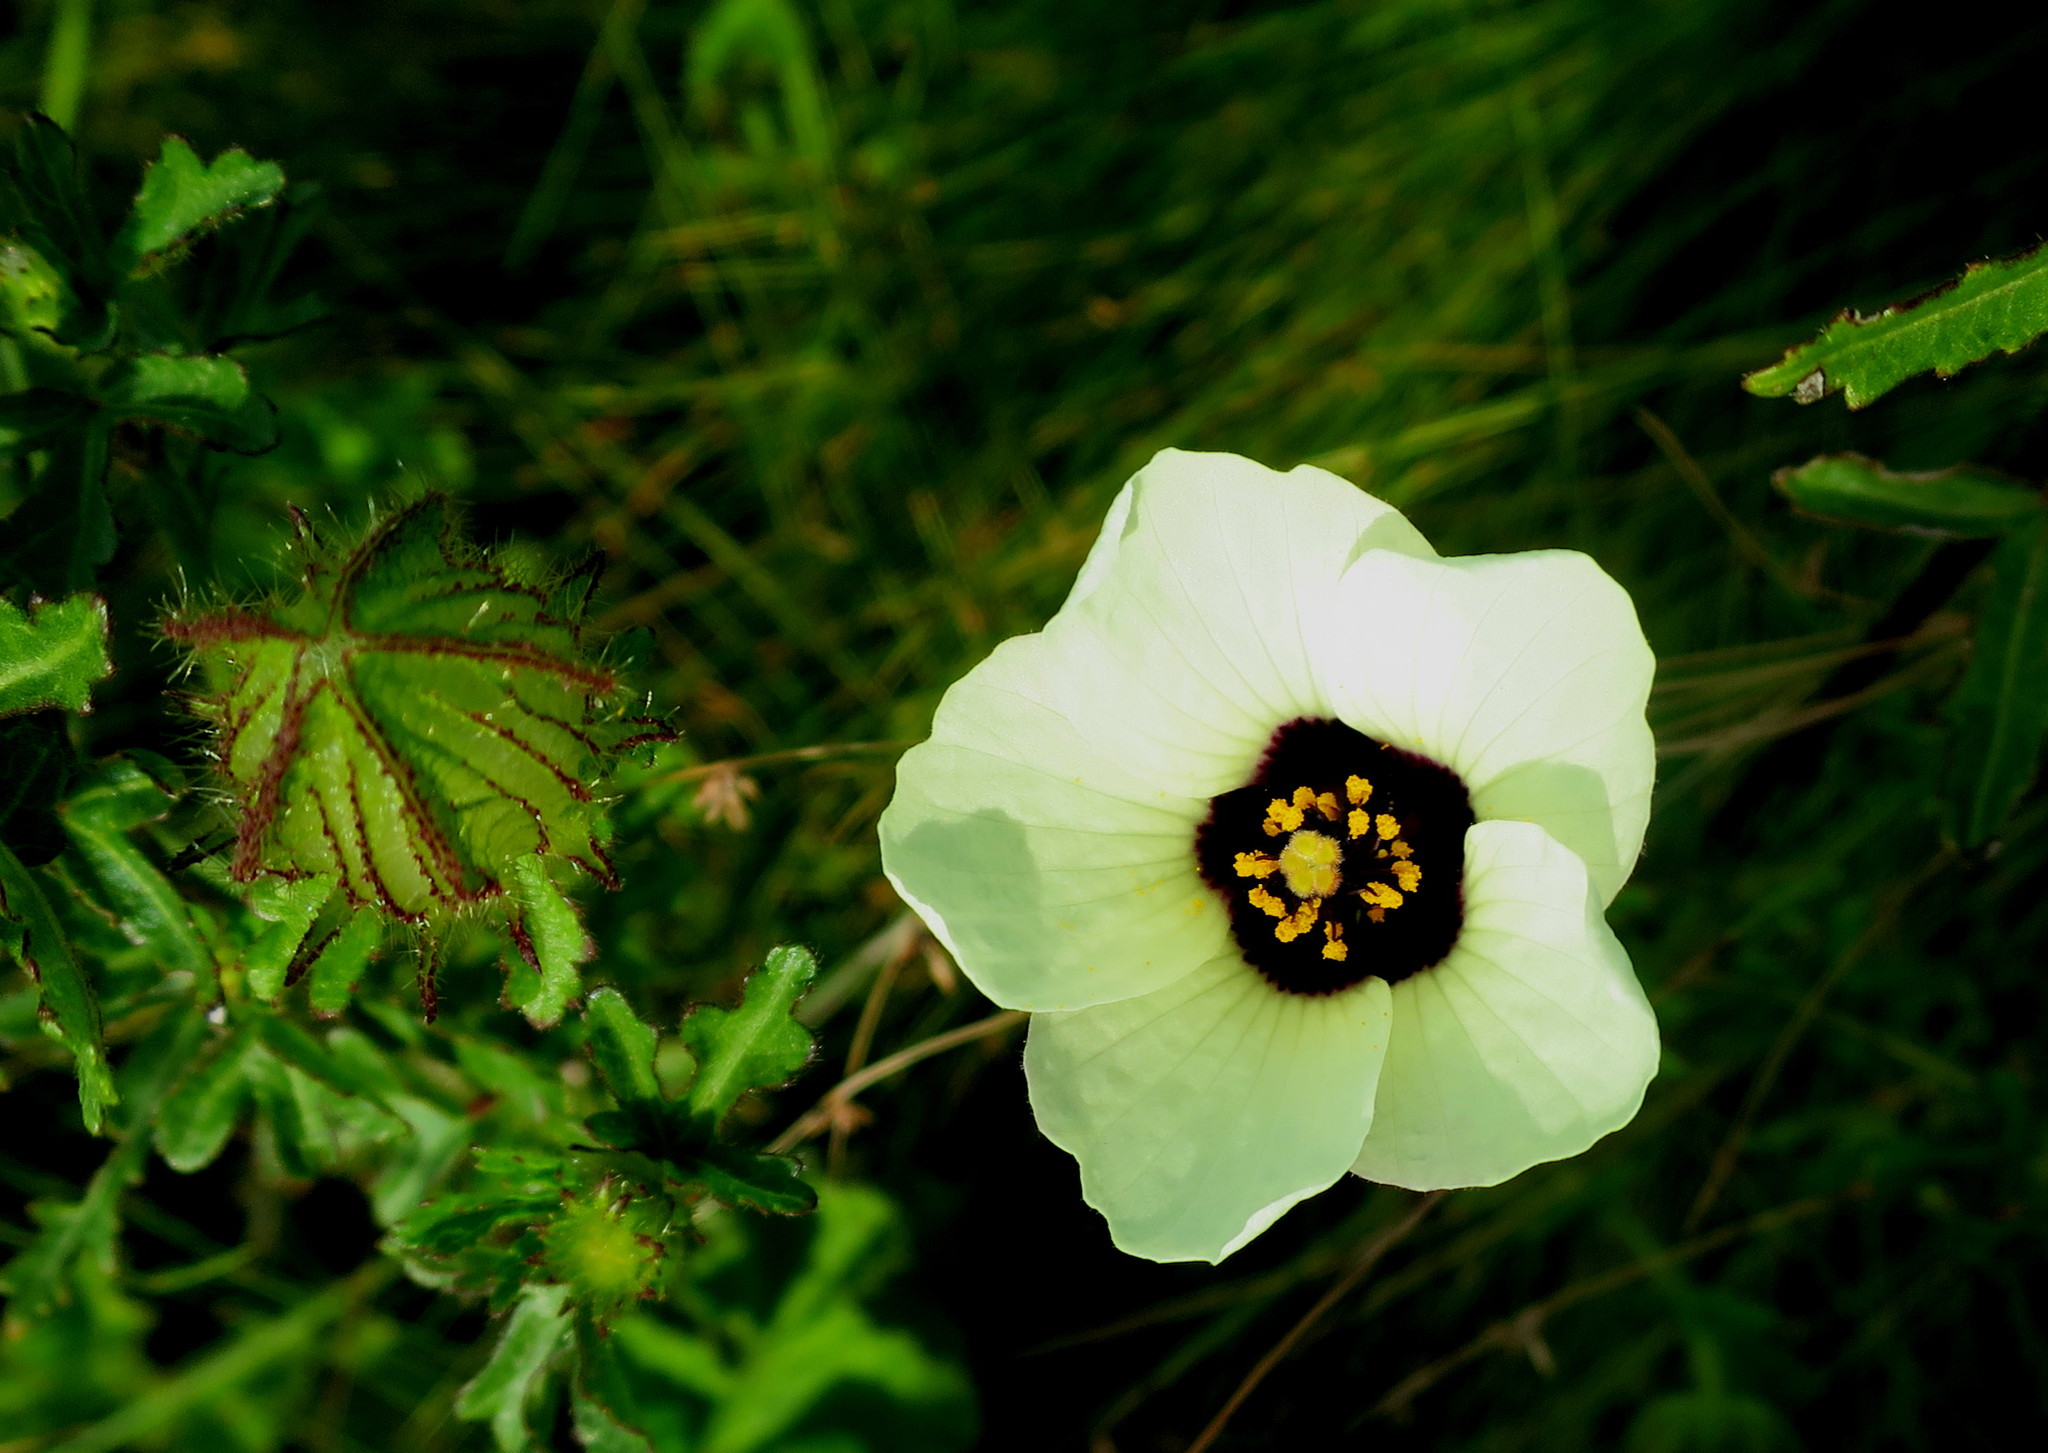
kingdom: Plantae
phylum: Tracheophyta
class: Magnoliopsida
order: Malvales
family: Malvaceae
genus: Hibiscus
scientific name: Hibiscus trionum
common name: Bladder ketmia
